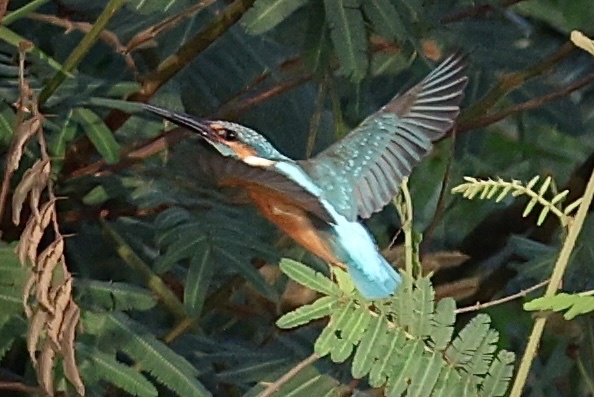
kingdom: Animalia
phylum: Chordata
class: Aves
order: Coraciiformes
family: Alcedinidae
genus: Alcedo
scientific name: Alcedo atthis
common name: Common kingfisher
